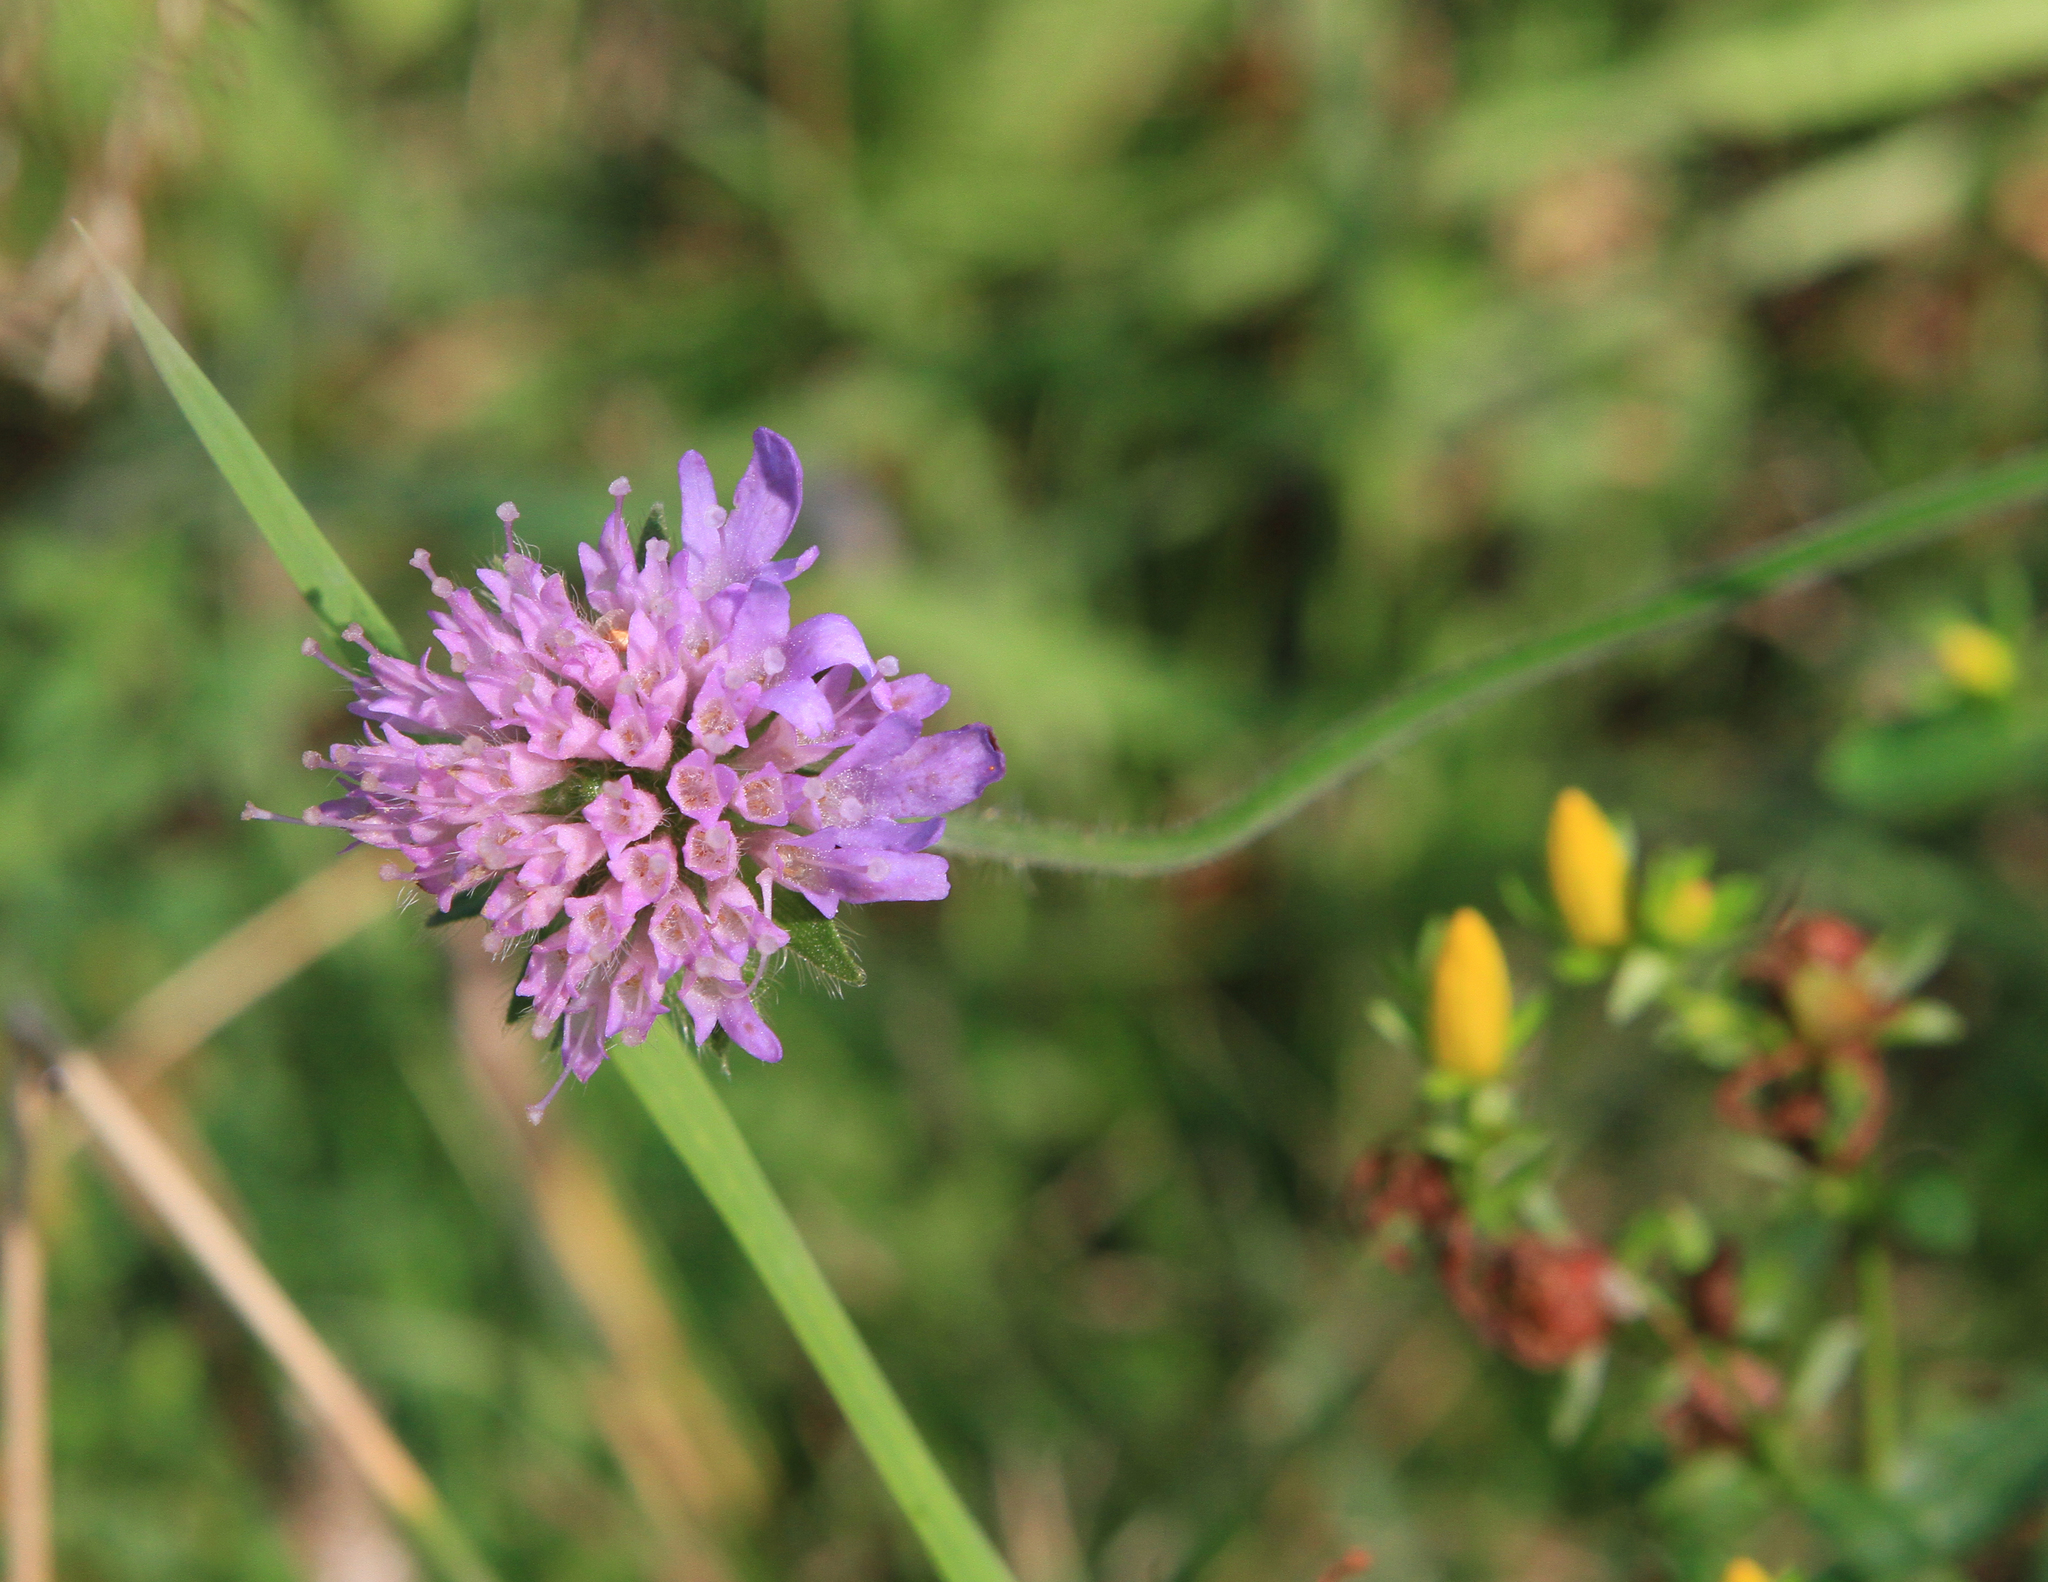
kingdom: Plantae
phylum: Tracheophyta
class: Magnoliopsida
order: Dipsacales
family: Caprifoliaceae
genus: Knautia
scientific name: Knautia arvensis
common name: Field scabiosa
